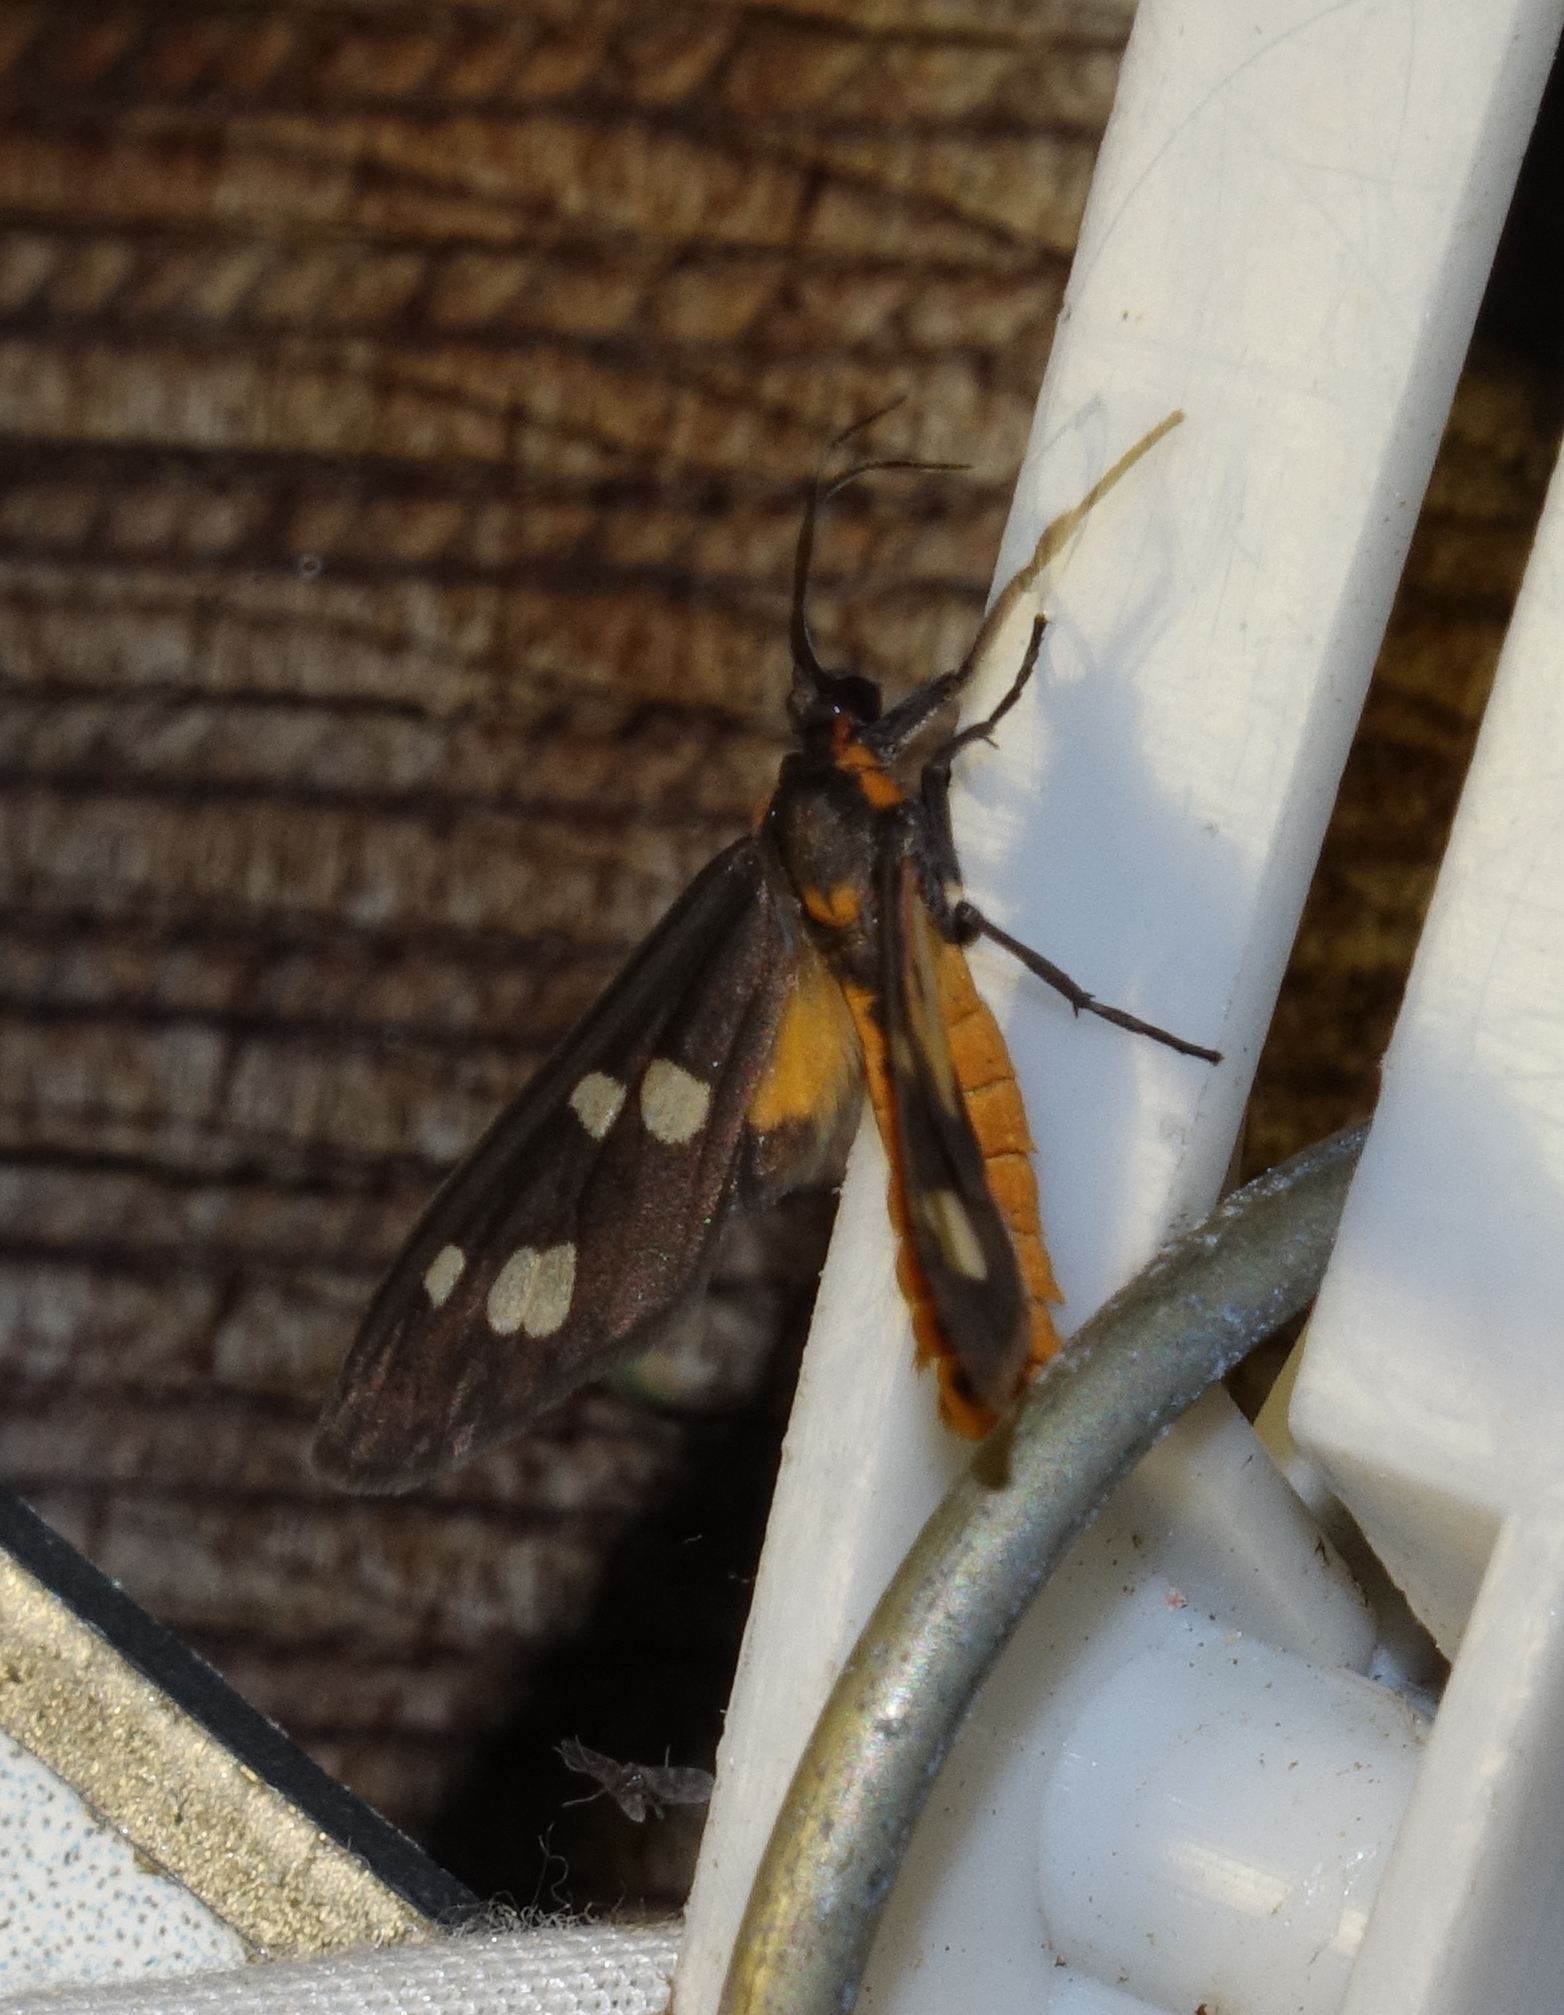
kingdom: Animalia
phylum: Arthropoda
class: Insecta
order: Lepidoptera
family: Erebidae
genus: Dysauxes
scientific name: Dysauxes punctata
